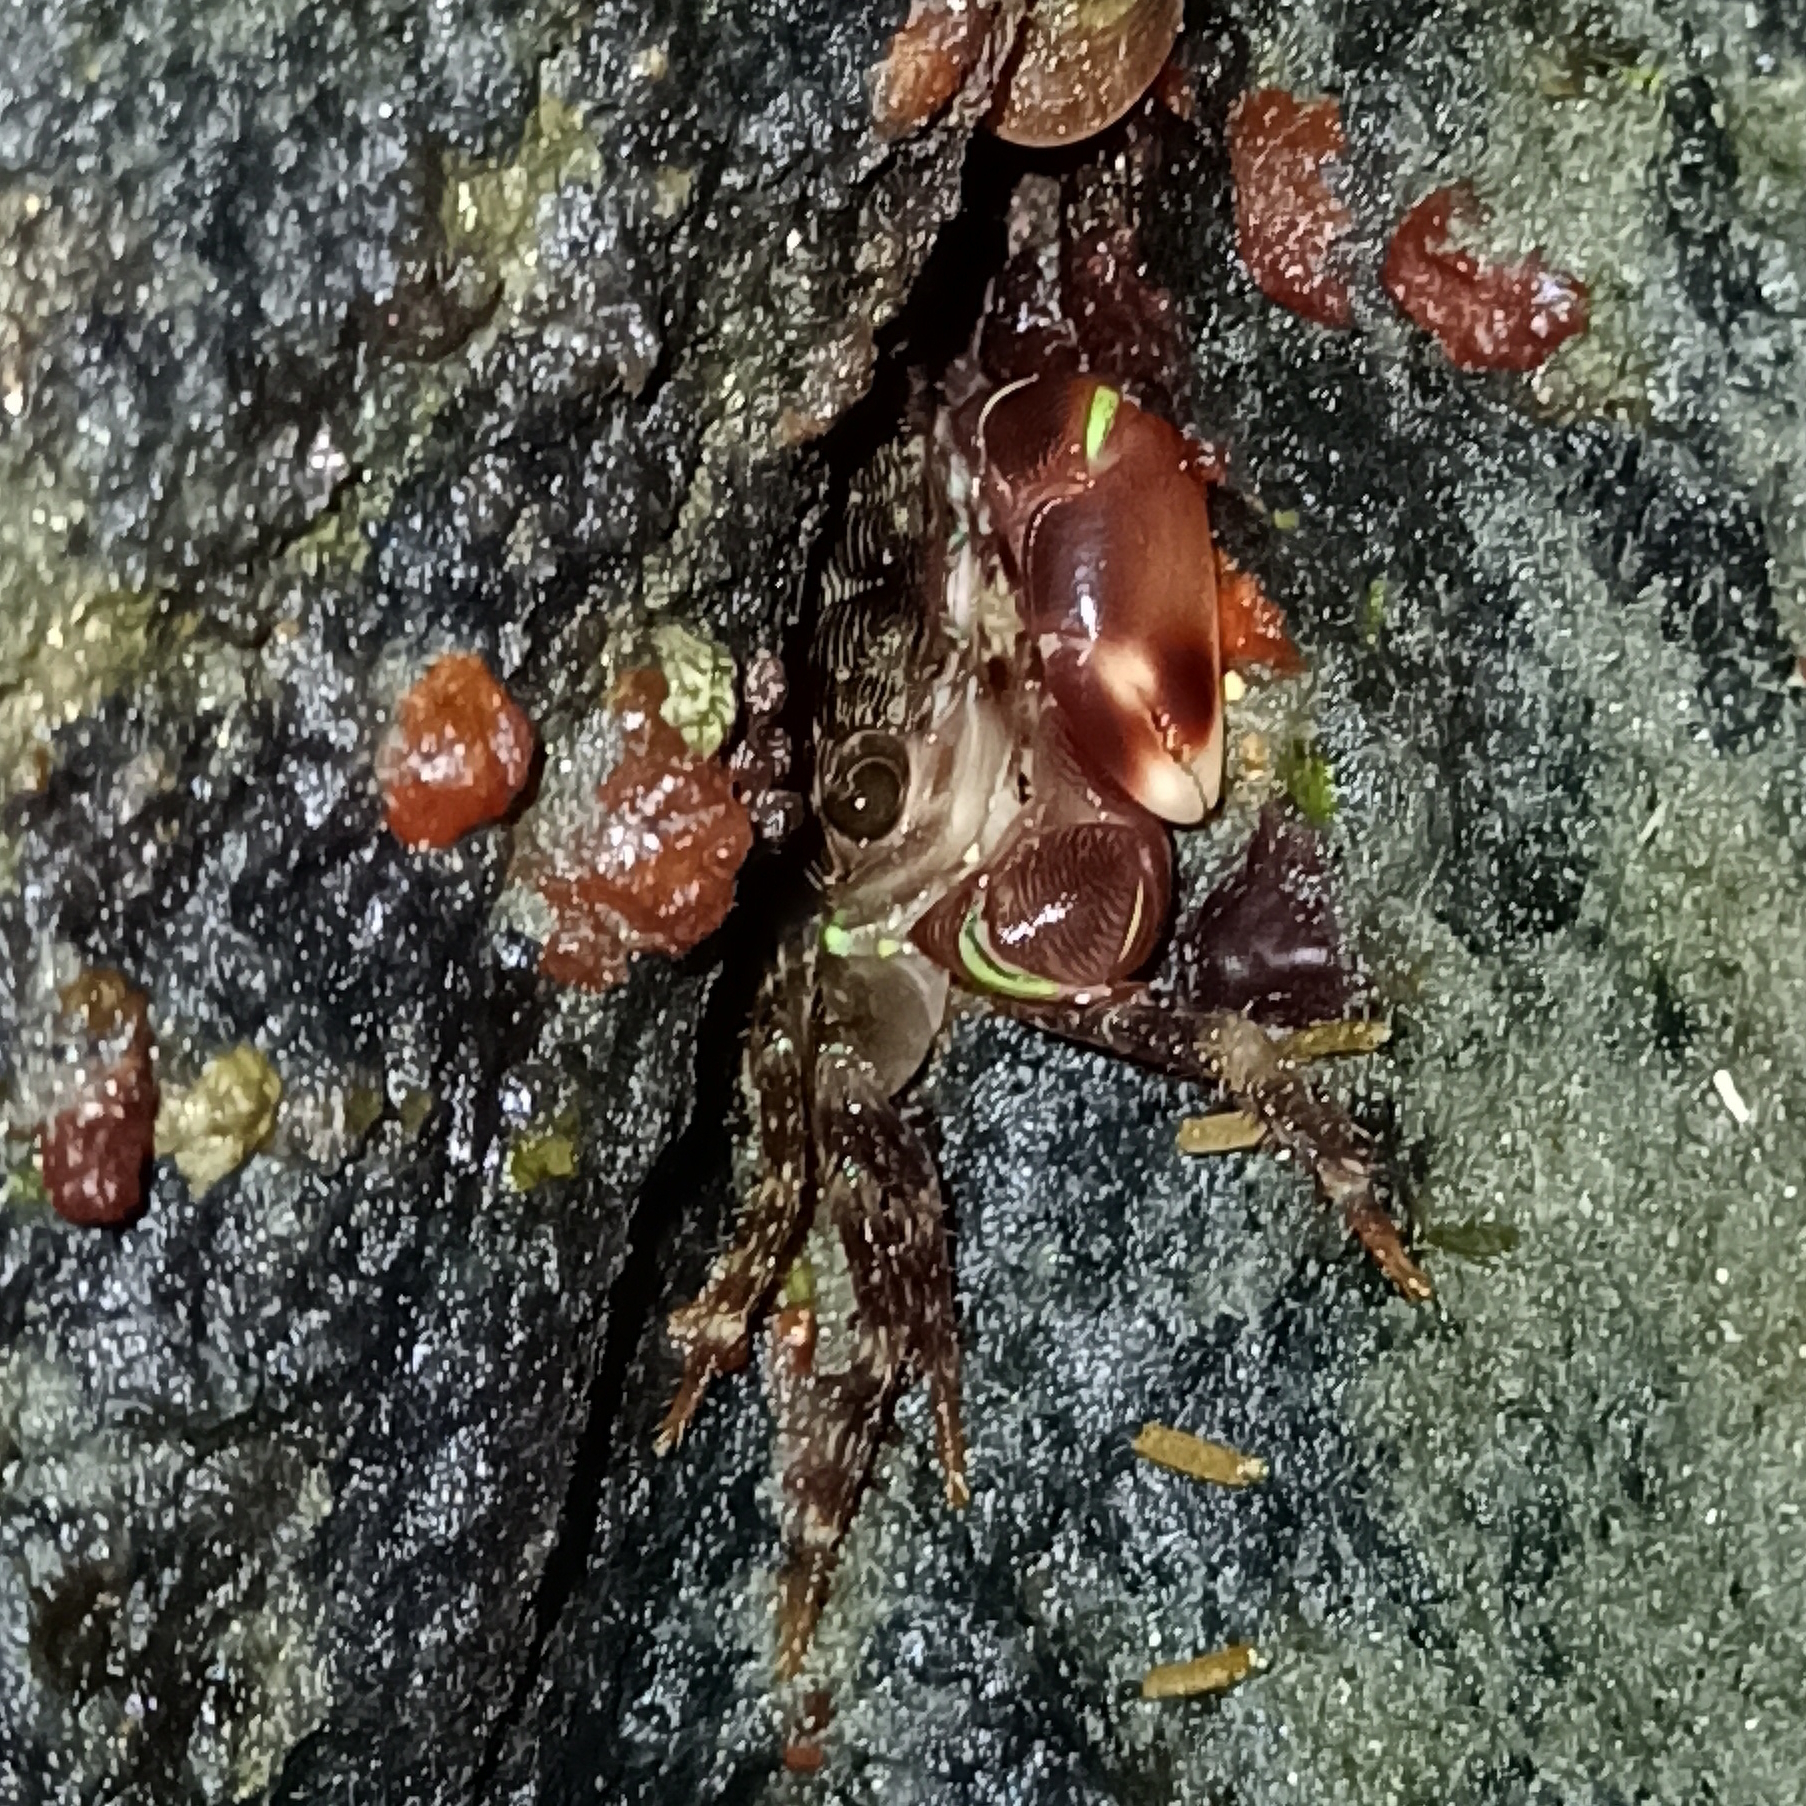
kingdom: Animalia
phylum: Arthropoda
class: Malacostraca
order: Decapoda
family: Grapsidae
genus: Pachygrapsus
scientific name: Pachygrapsus transversus
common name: Mottled shore crab
